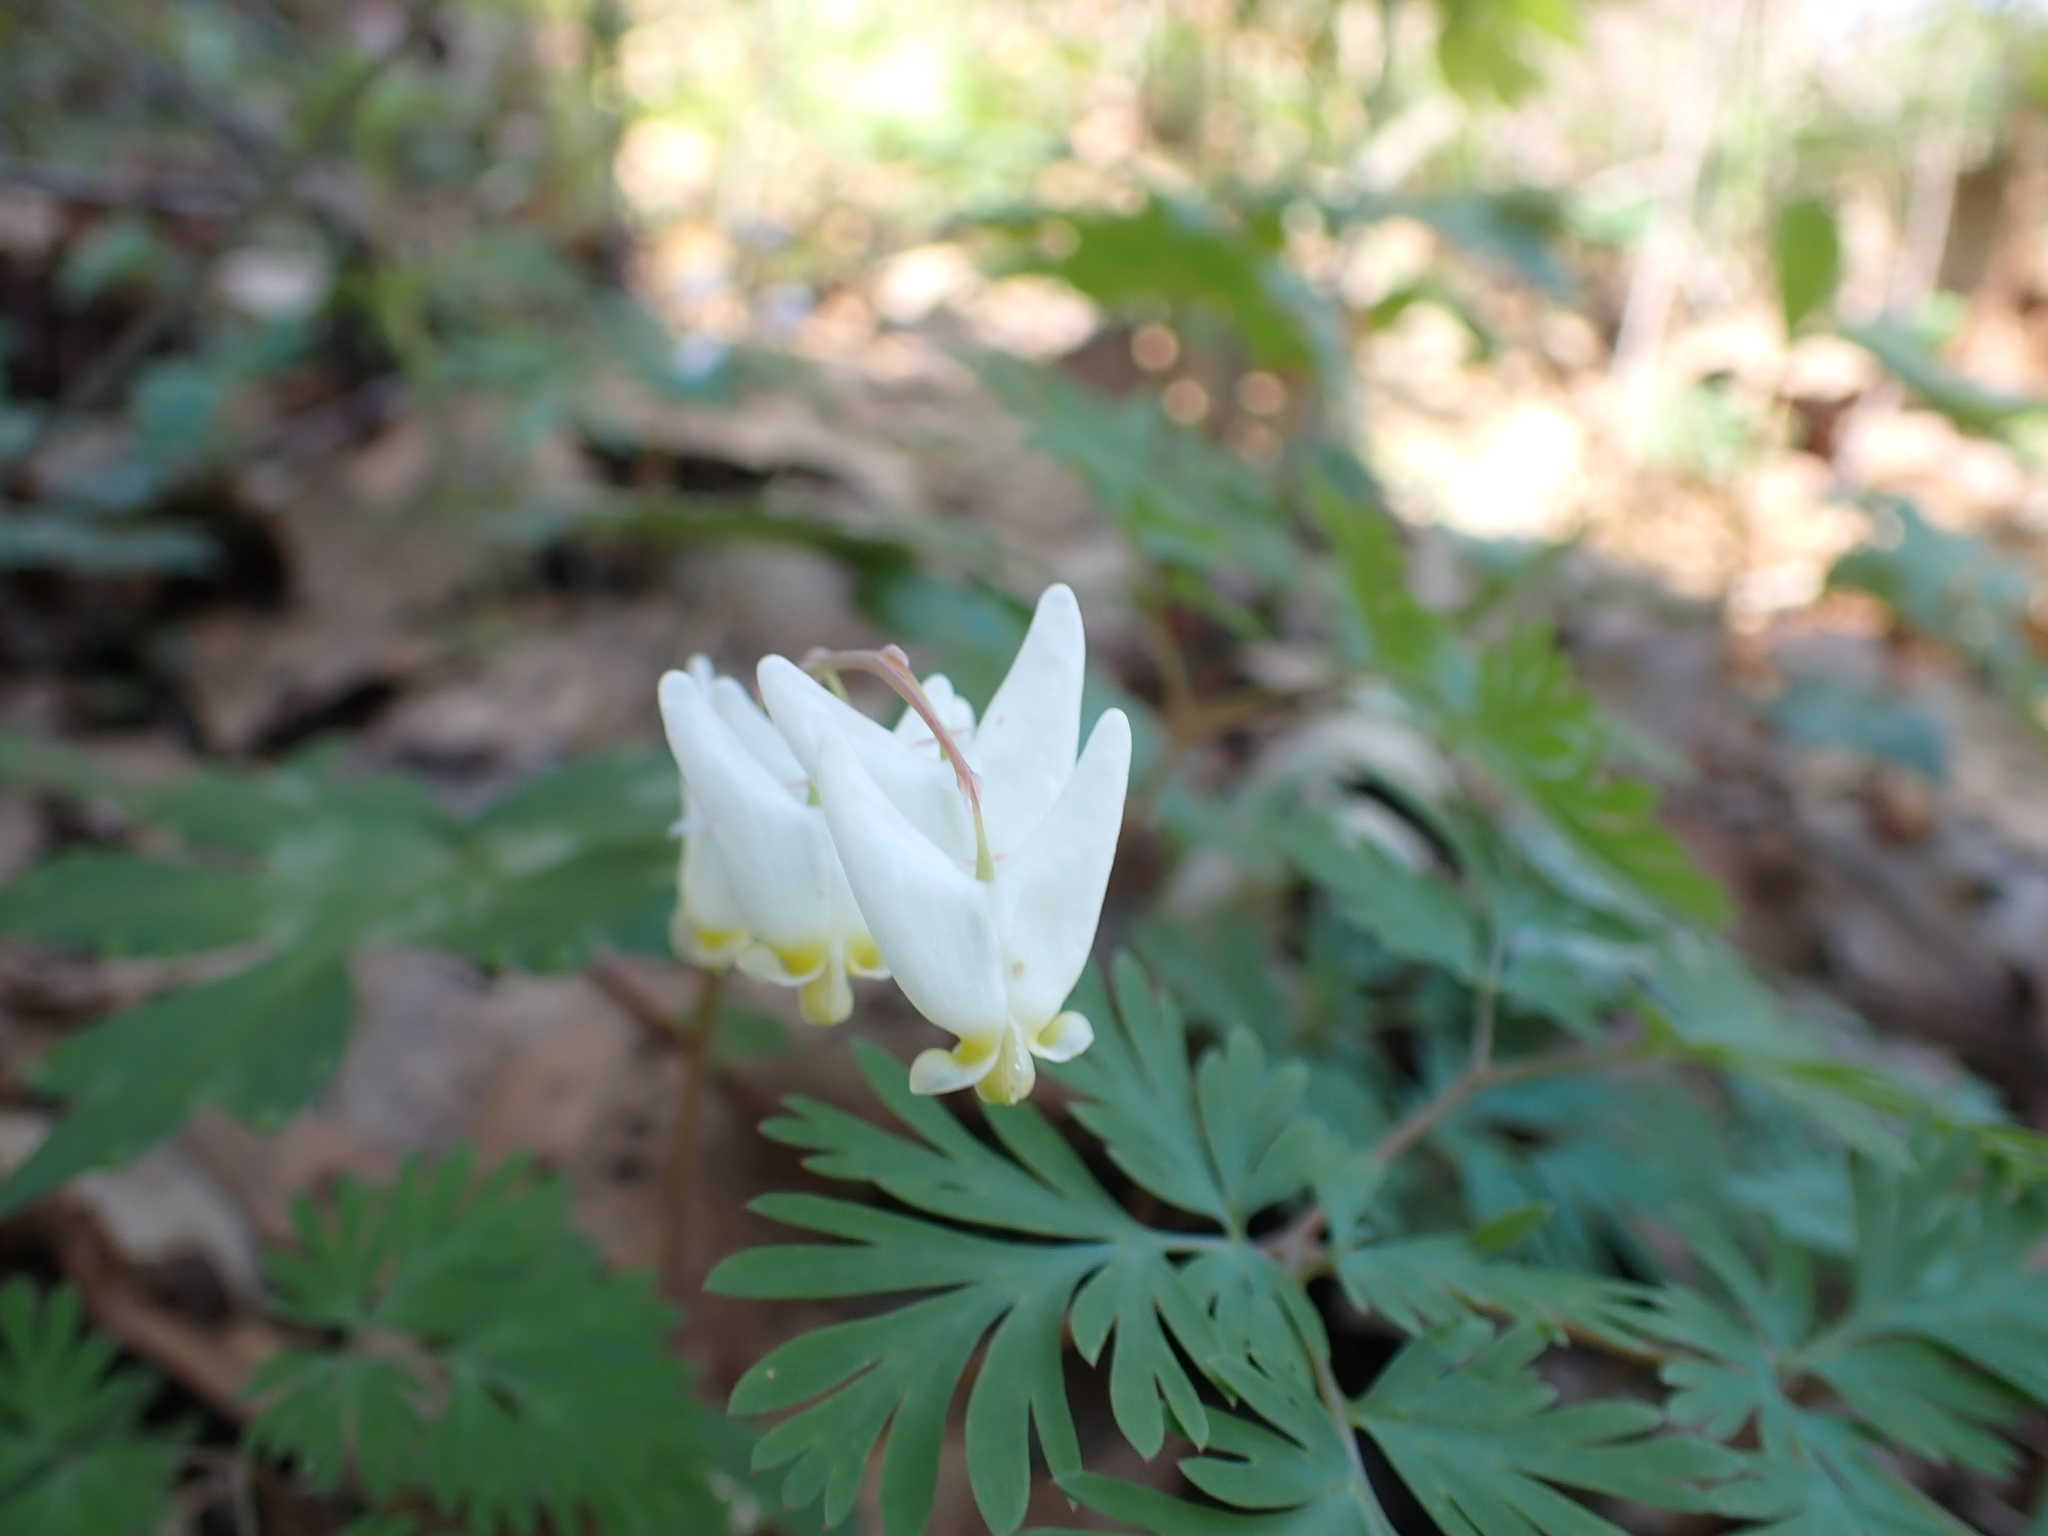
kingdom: Plantae
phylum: Tracheophyta
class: Magnoliopsida
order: Ranunculales
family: Papaveraceae
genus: Dicentra
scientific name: Dicentra cucullaria
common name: Dutchman's breeches
